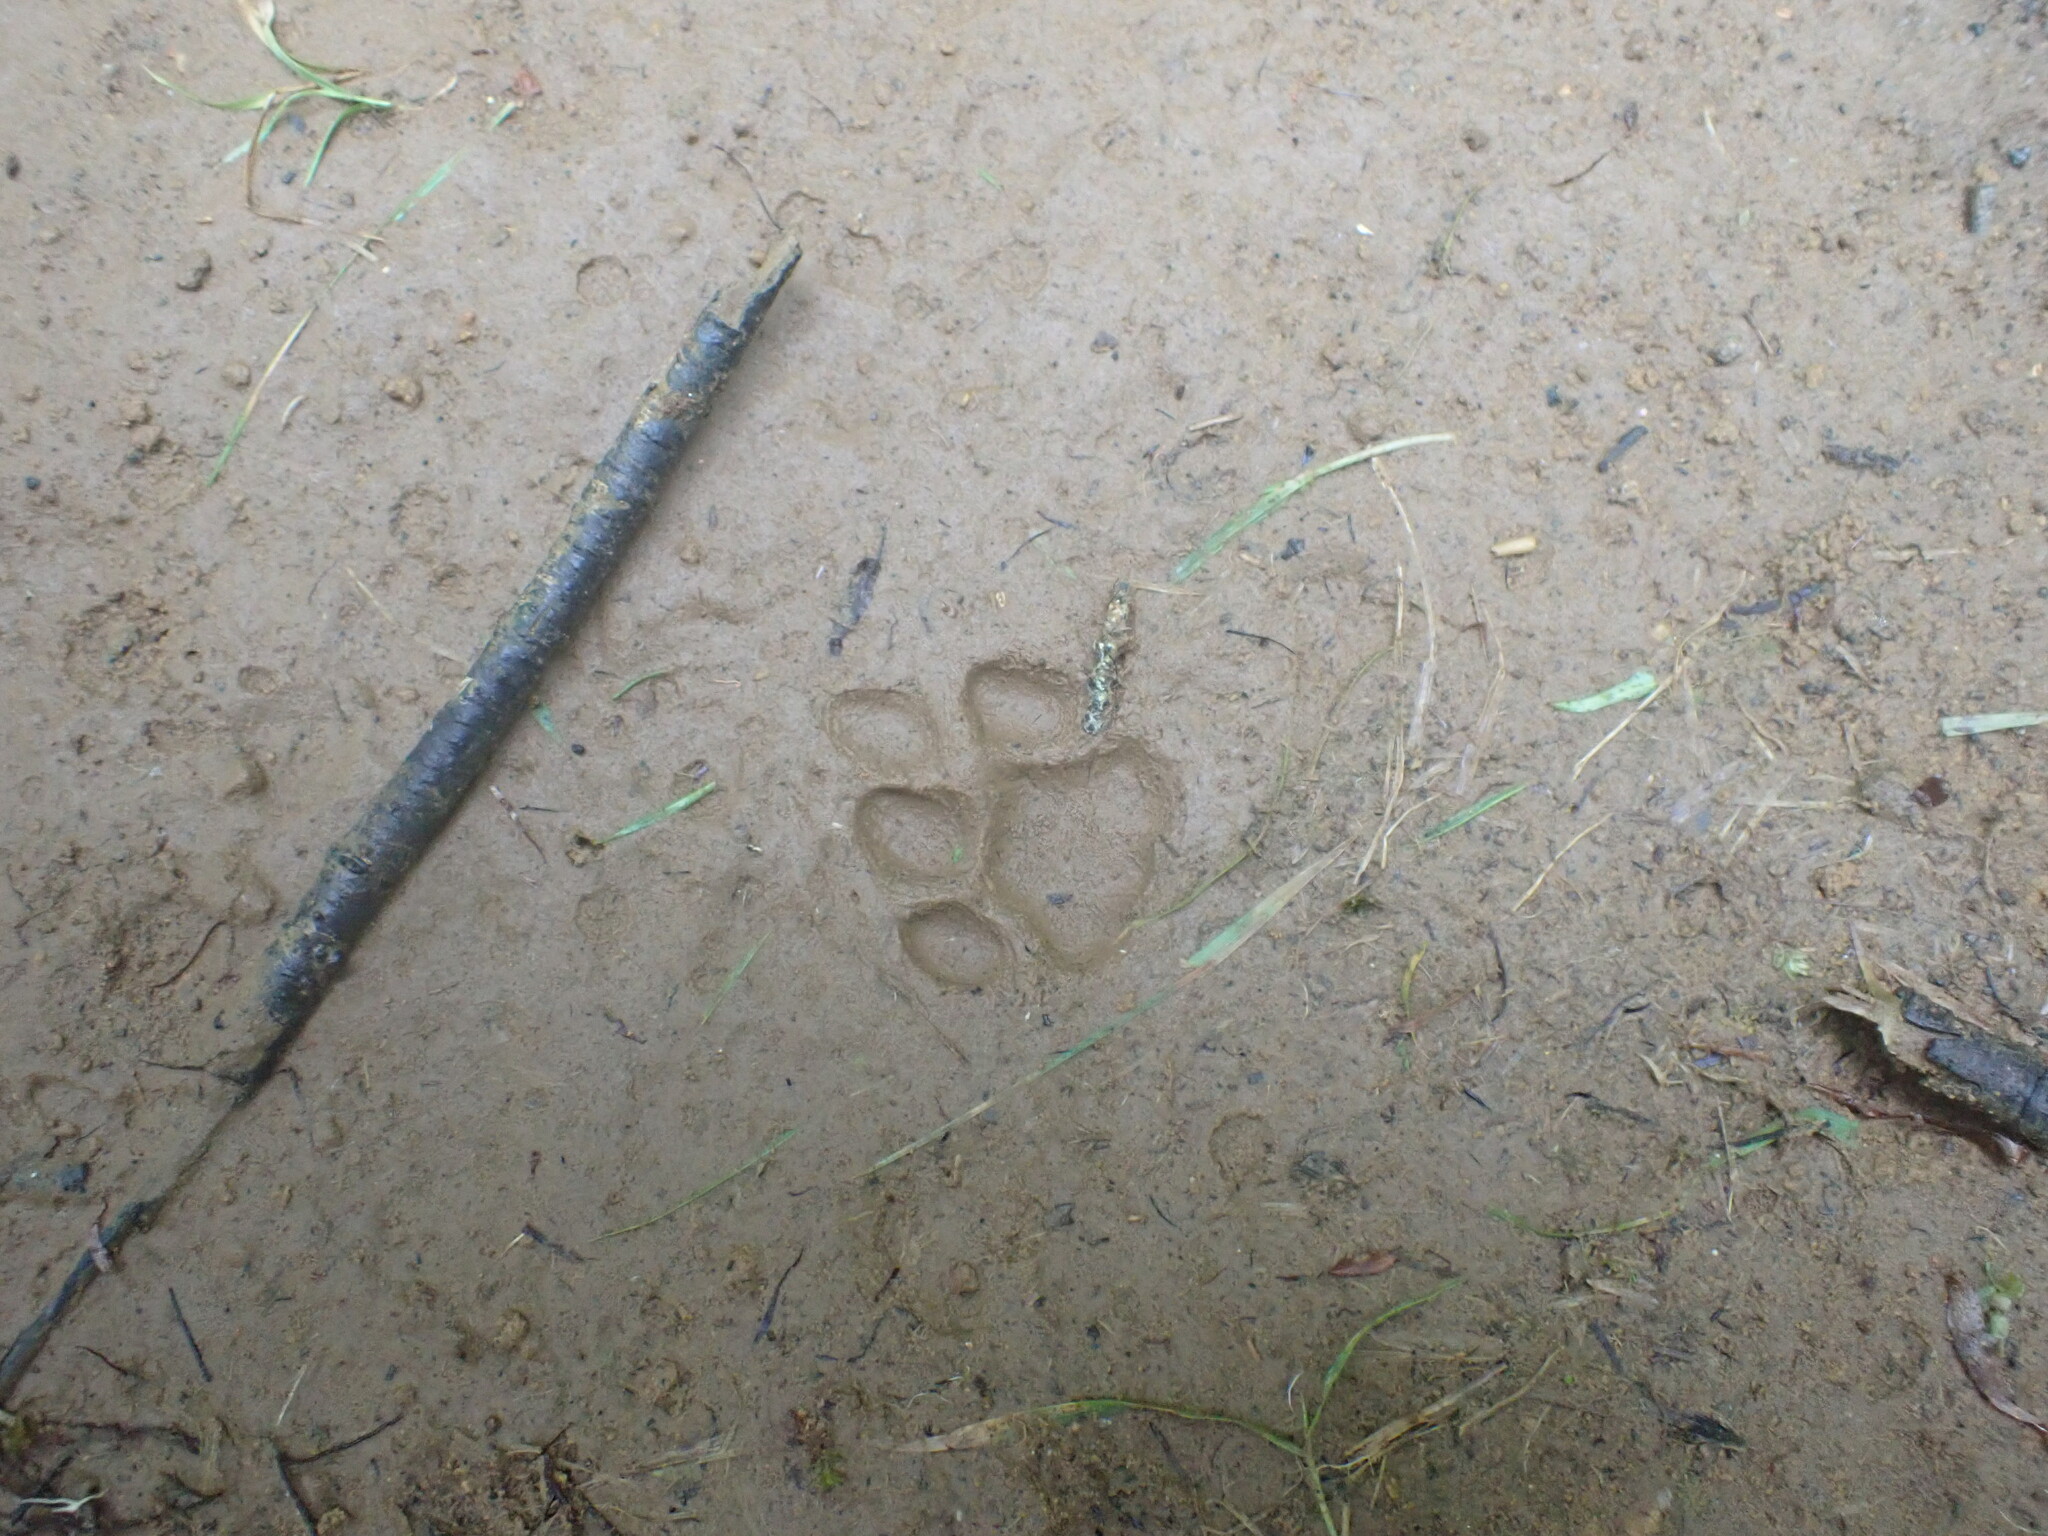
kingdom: Animalia
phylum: Chordata
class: Mammalia
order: Carnivora
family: Felidae
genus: Felis
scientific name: Felis catus
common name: Domestic cat
